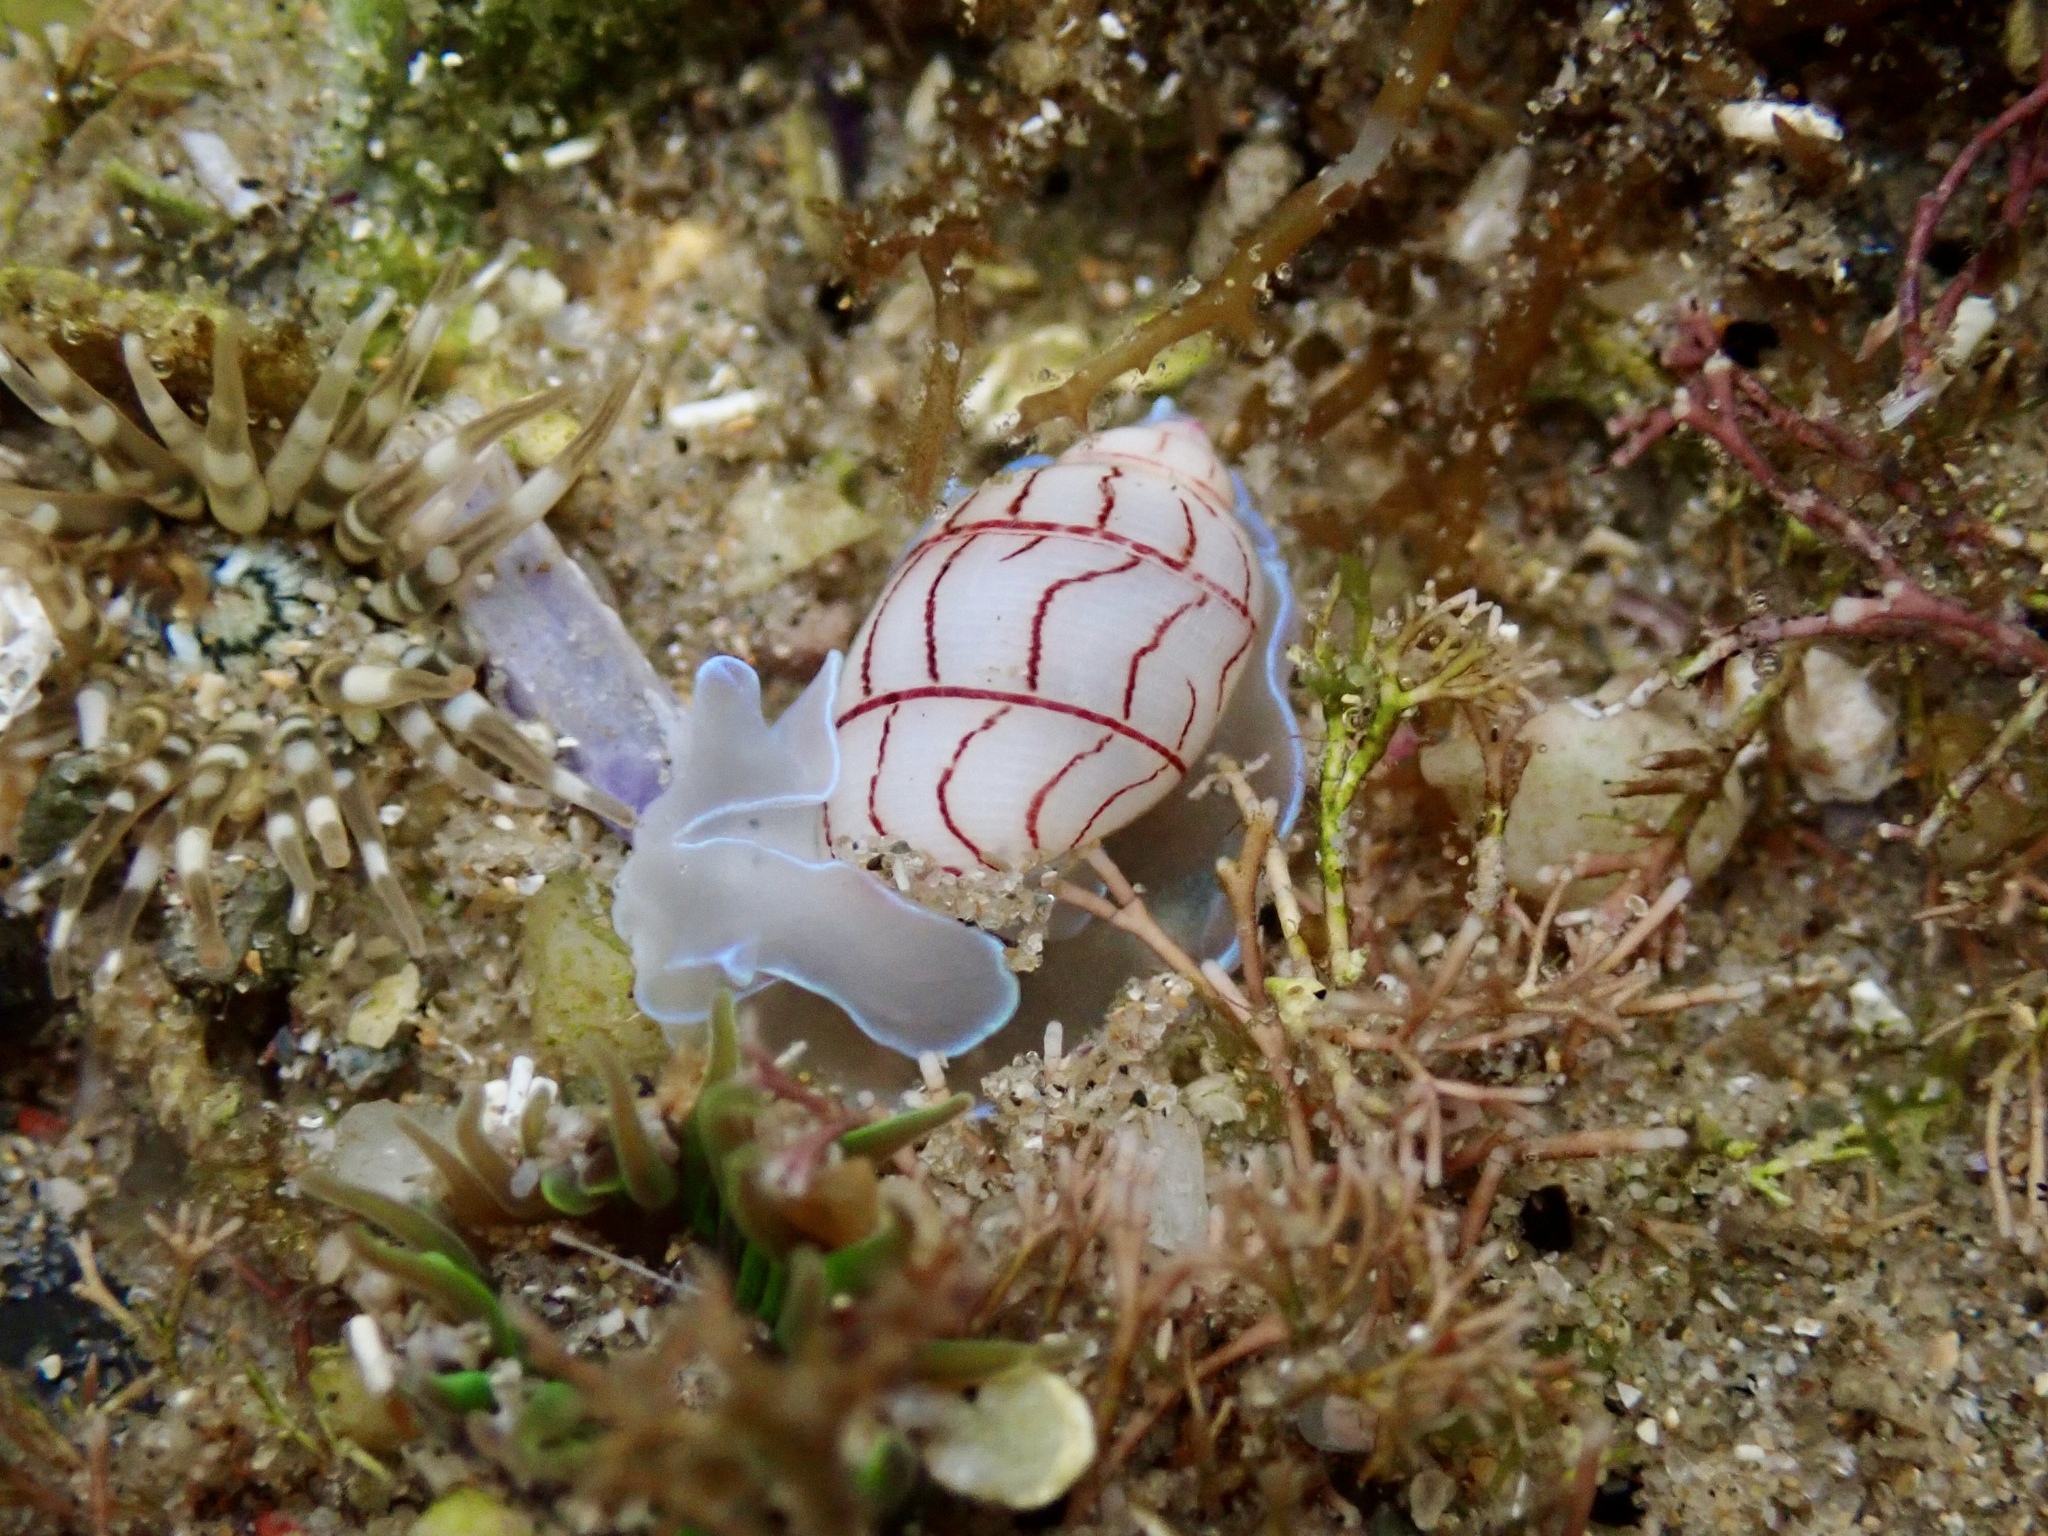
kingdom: Animalia
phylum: Mollusca
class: Gastropoda
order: Cephalaspidea
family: Aplustridae
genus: Bullina
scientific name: Bullina lineata
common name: Lined bubble snail
